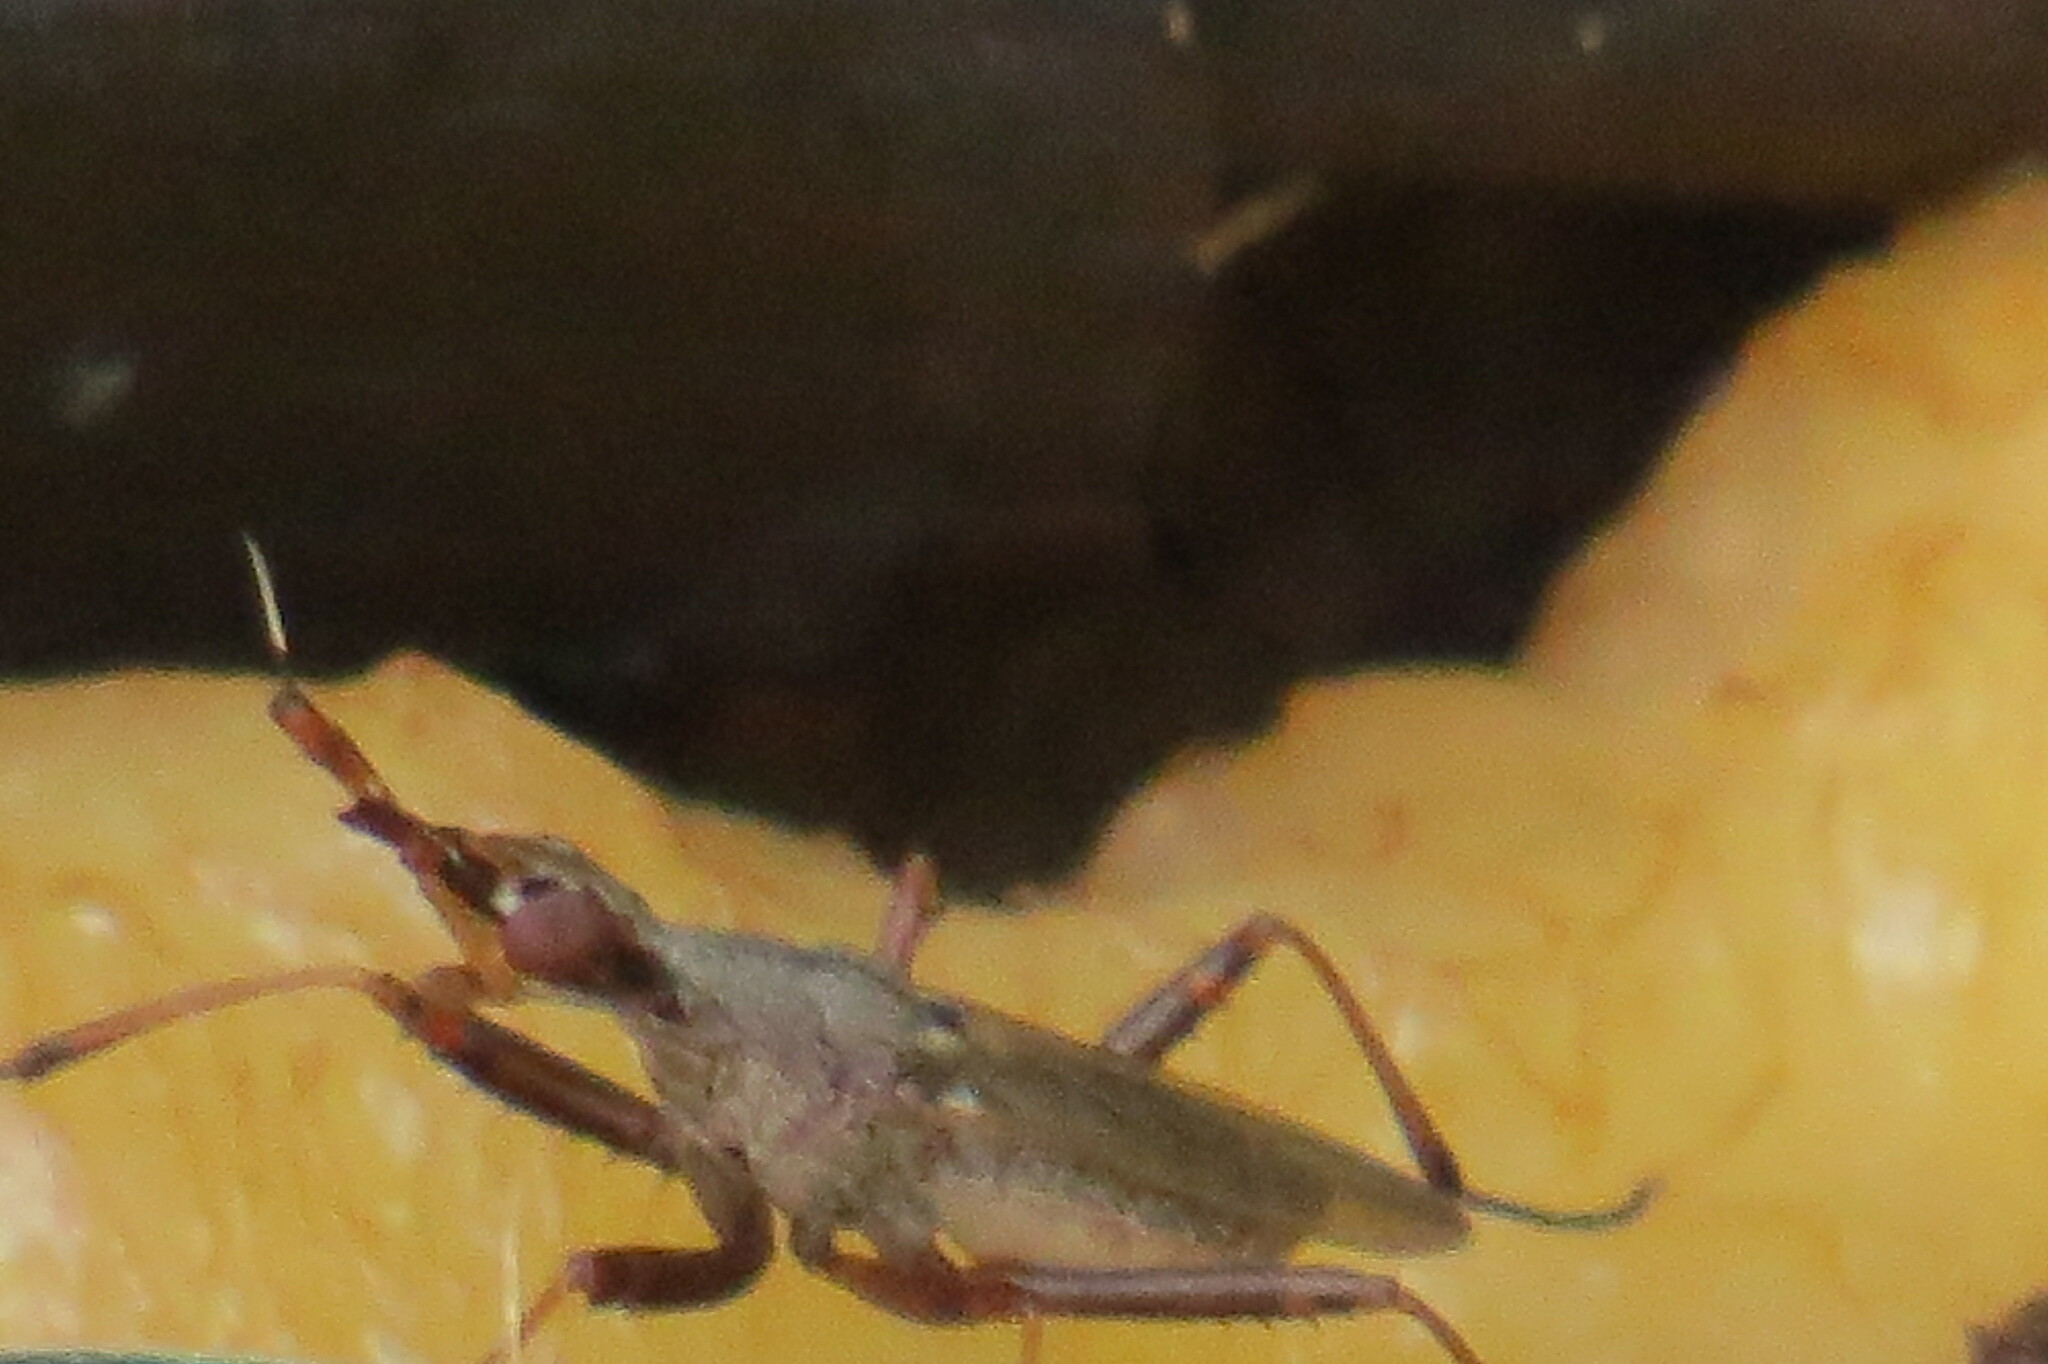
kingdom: Animalia
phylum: Arthropoda
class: Insecta
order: Diptera
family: Neriidae
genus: Odontoloxozus
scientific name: Odontoloxozus longicornis
